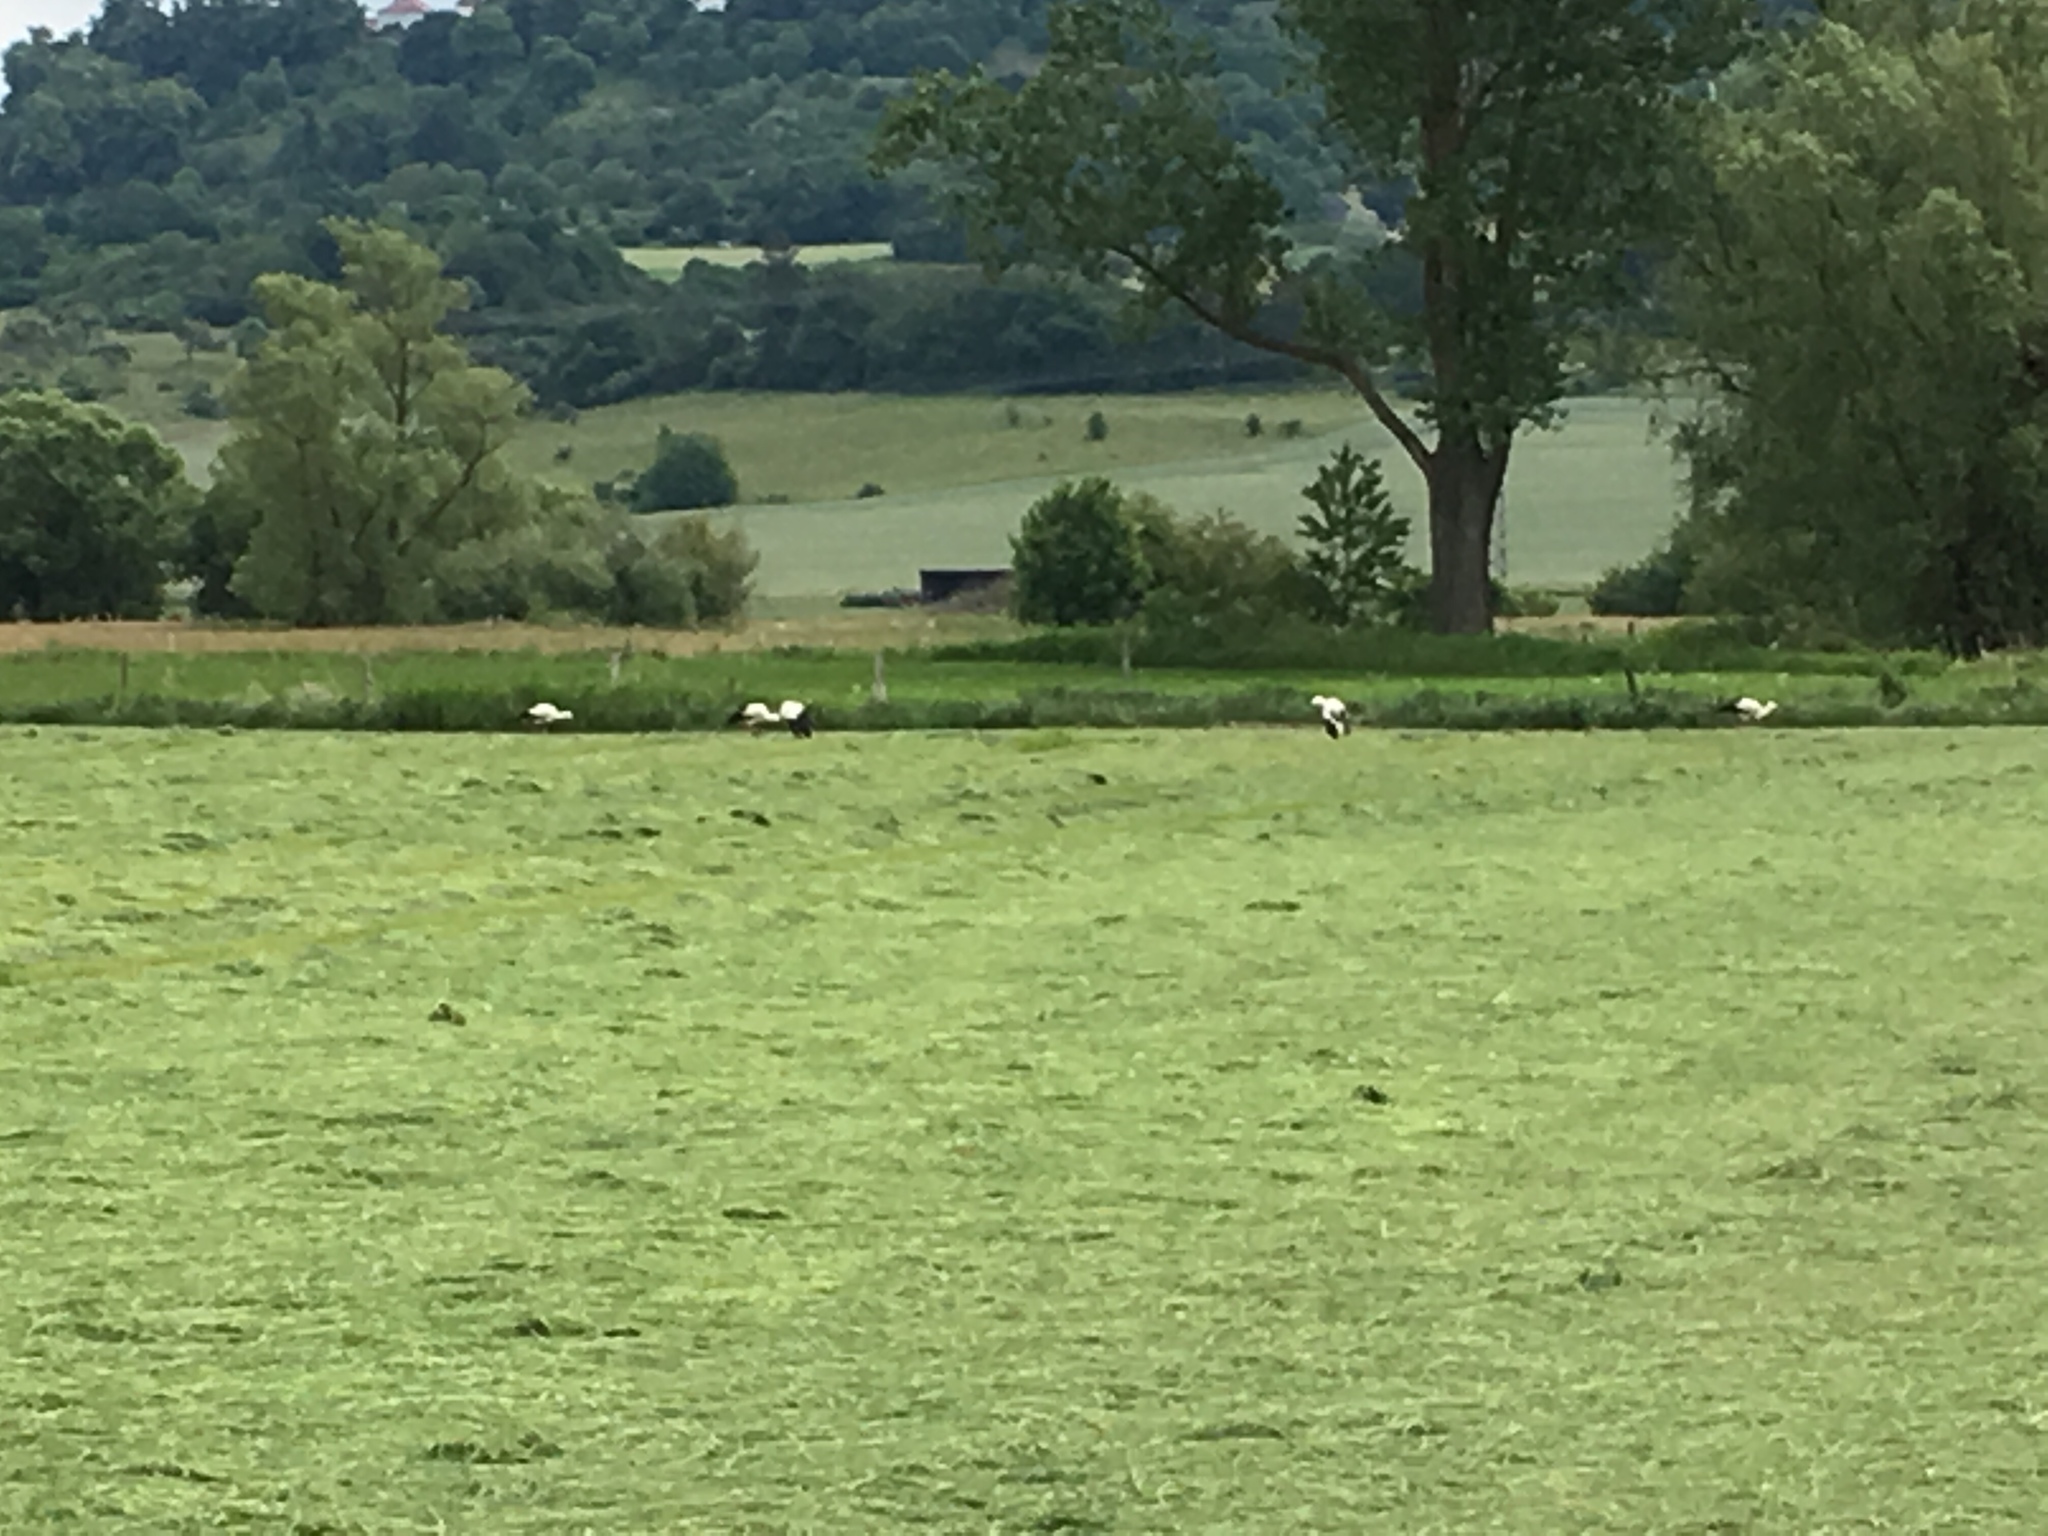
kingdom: Animalia
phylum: Chordata
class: Aves
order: Ciconiiformes
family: Ciconiidae
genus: Ciconia
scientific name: Ciconia ciconia
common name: White stork
